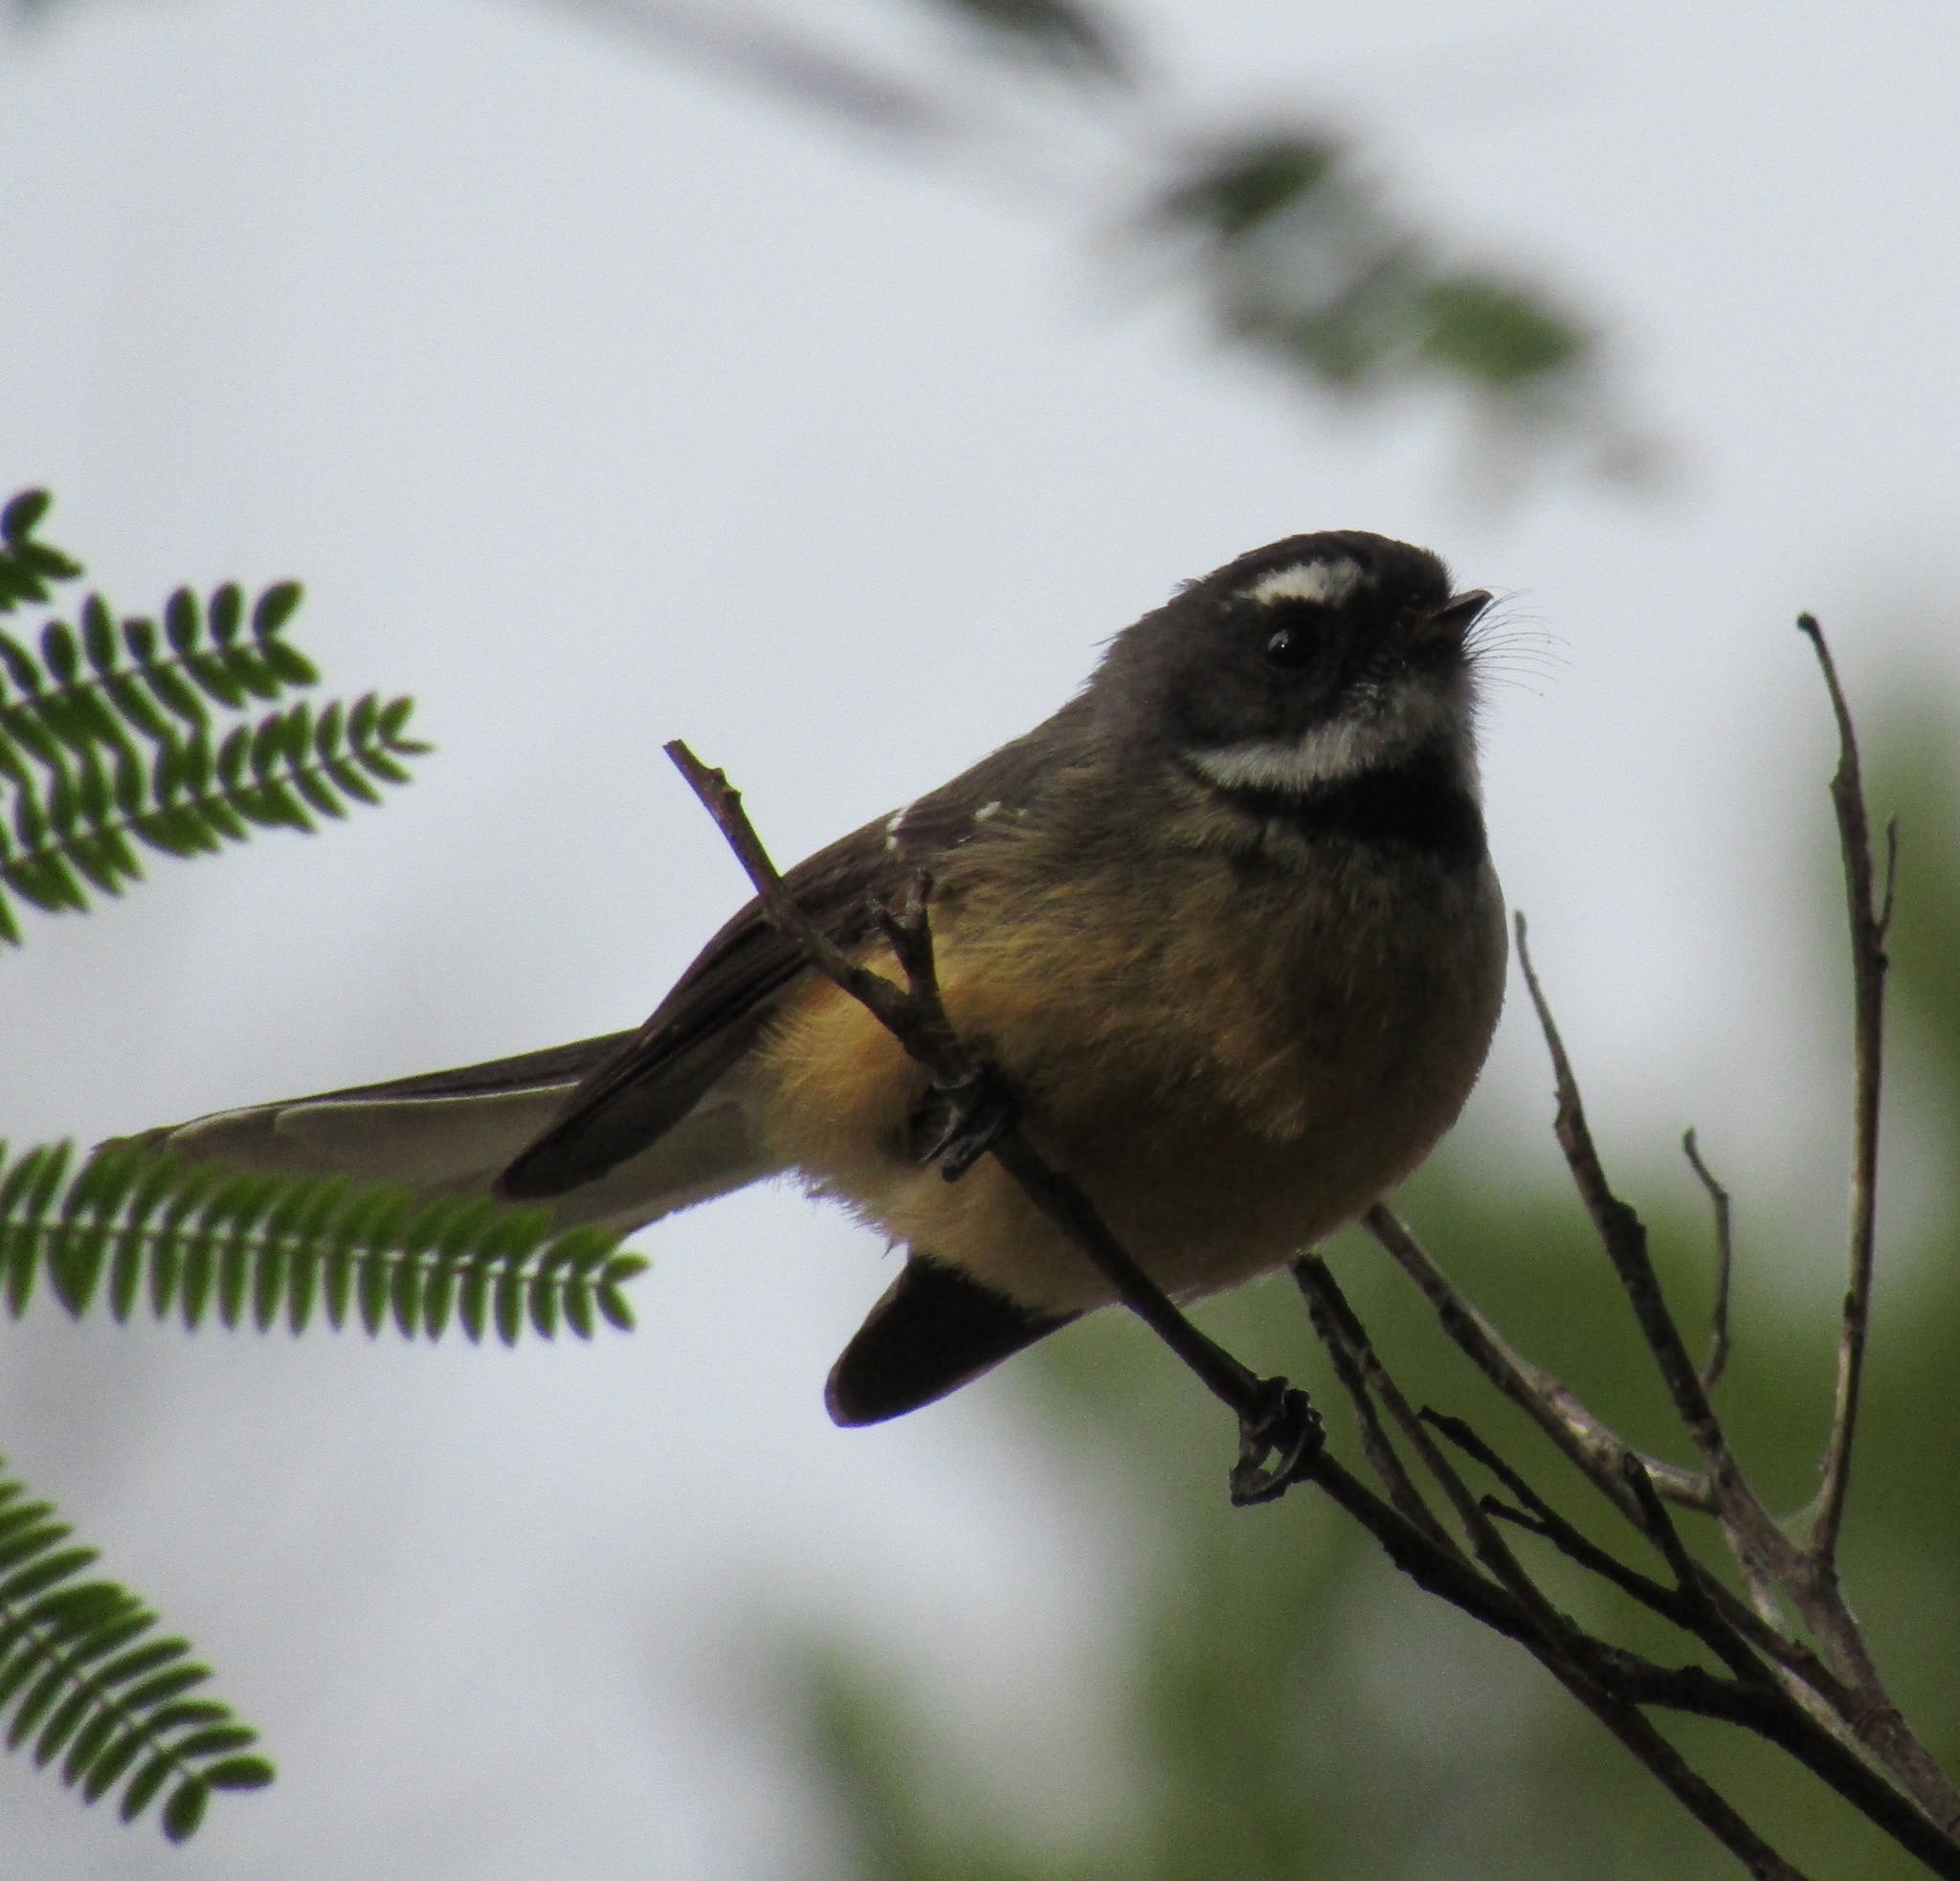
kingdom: Animalia
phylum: Chordata
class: Aves
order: Passeriformes
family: Rhipiduridae
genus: Rhipidura
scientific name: Rhipidura fuliginosa
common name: New zealand fantail
